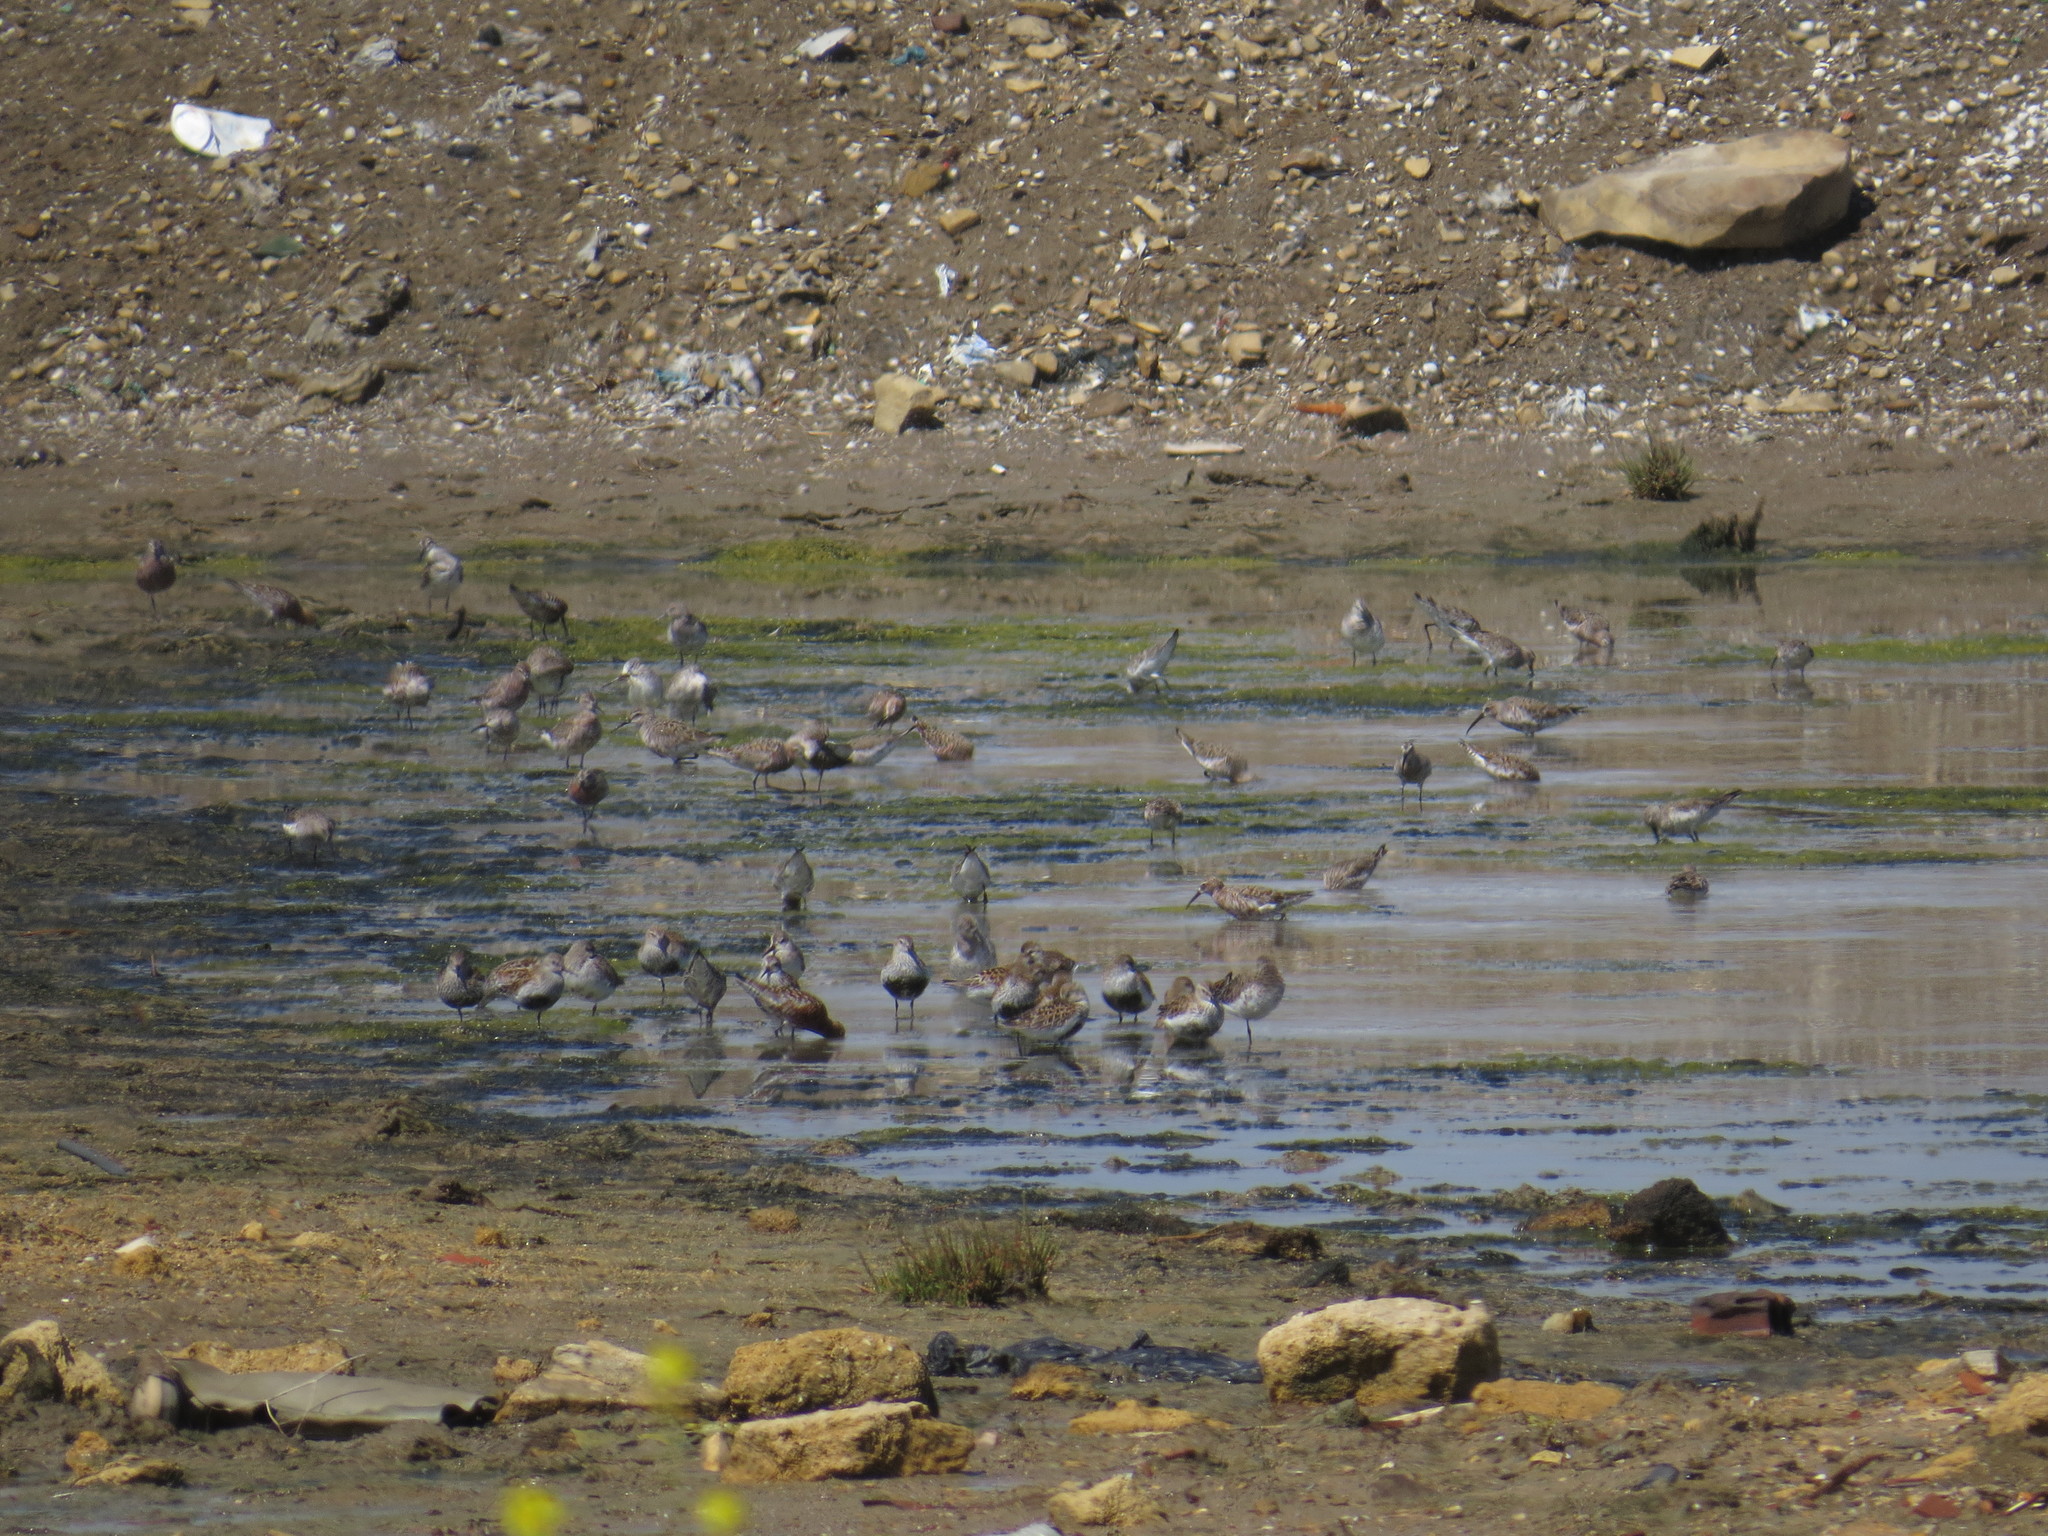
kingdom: Animalia
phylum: Chordata
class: Aves
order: Charadriiformes
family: Scolopacidae
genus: Calidris
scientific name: Calidris alpina
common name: Dunlin
